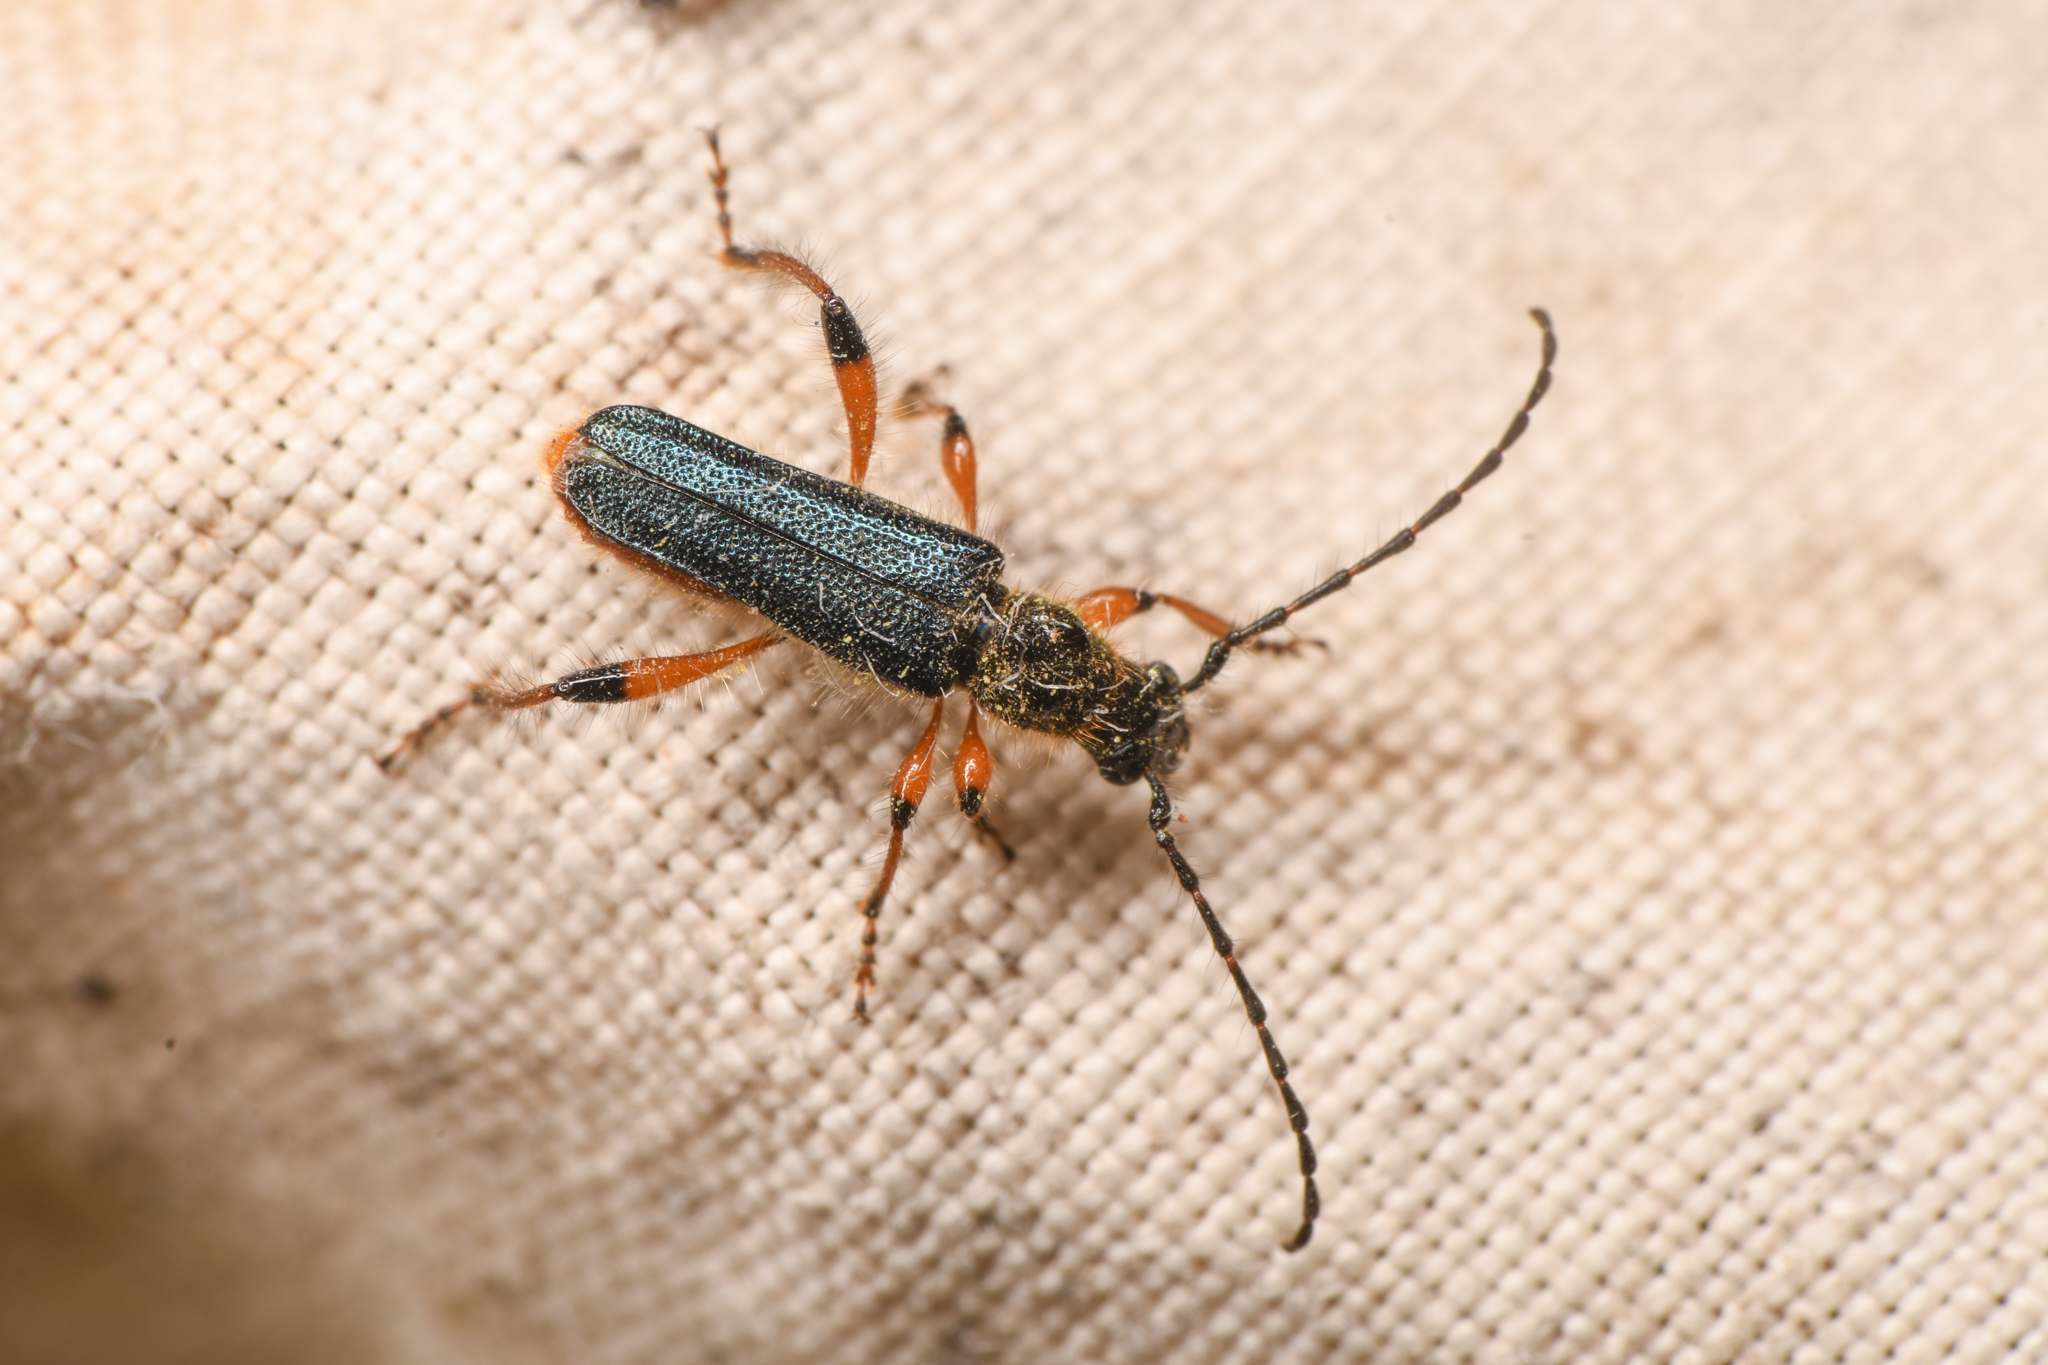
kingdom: Animalia
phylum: Arthropoda
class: Insecta
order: Coleoptera
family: Cerambycidae
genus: Callimus
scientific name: Callimus cyanipennis
